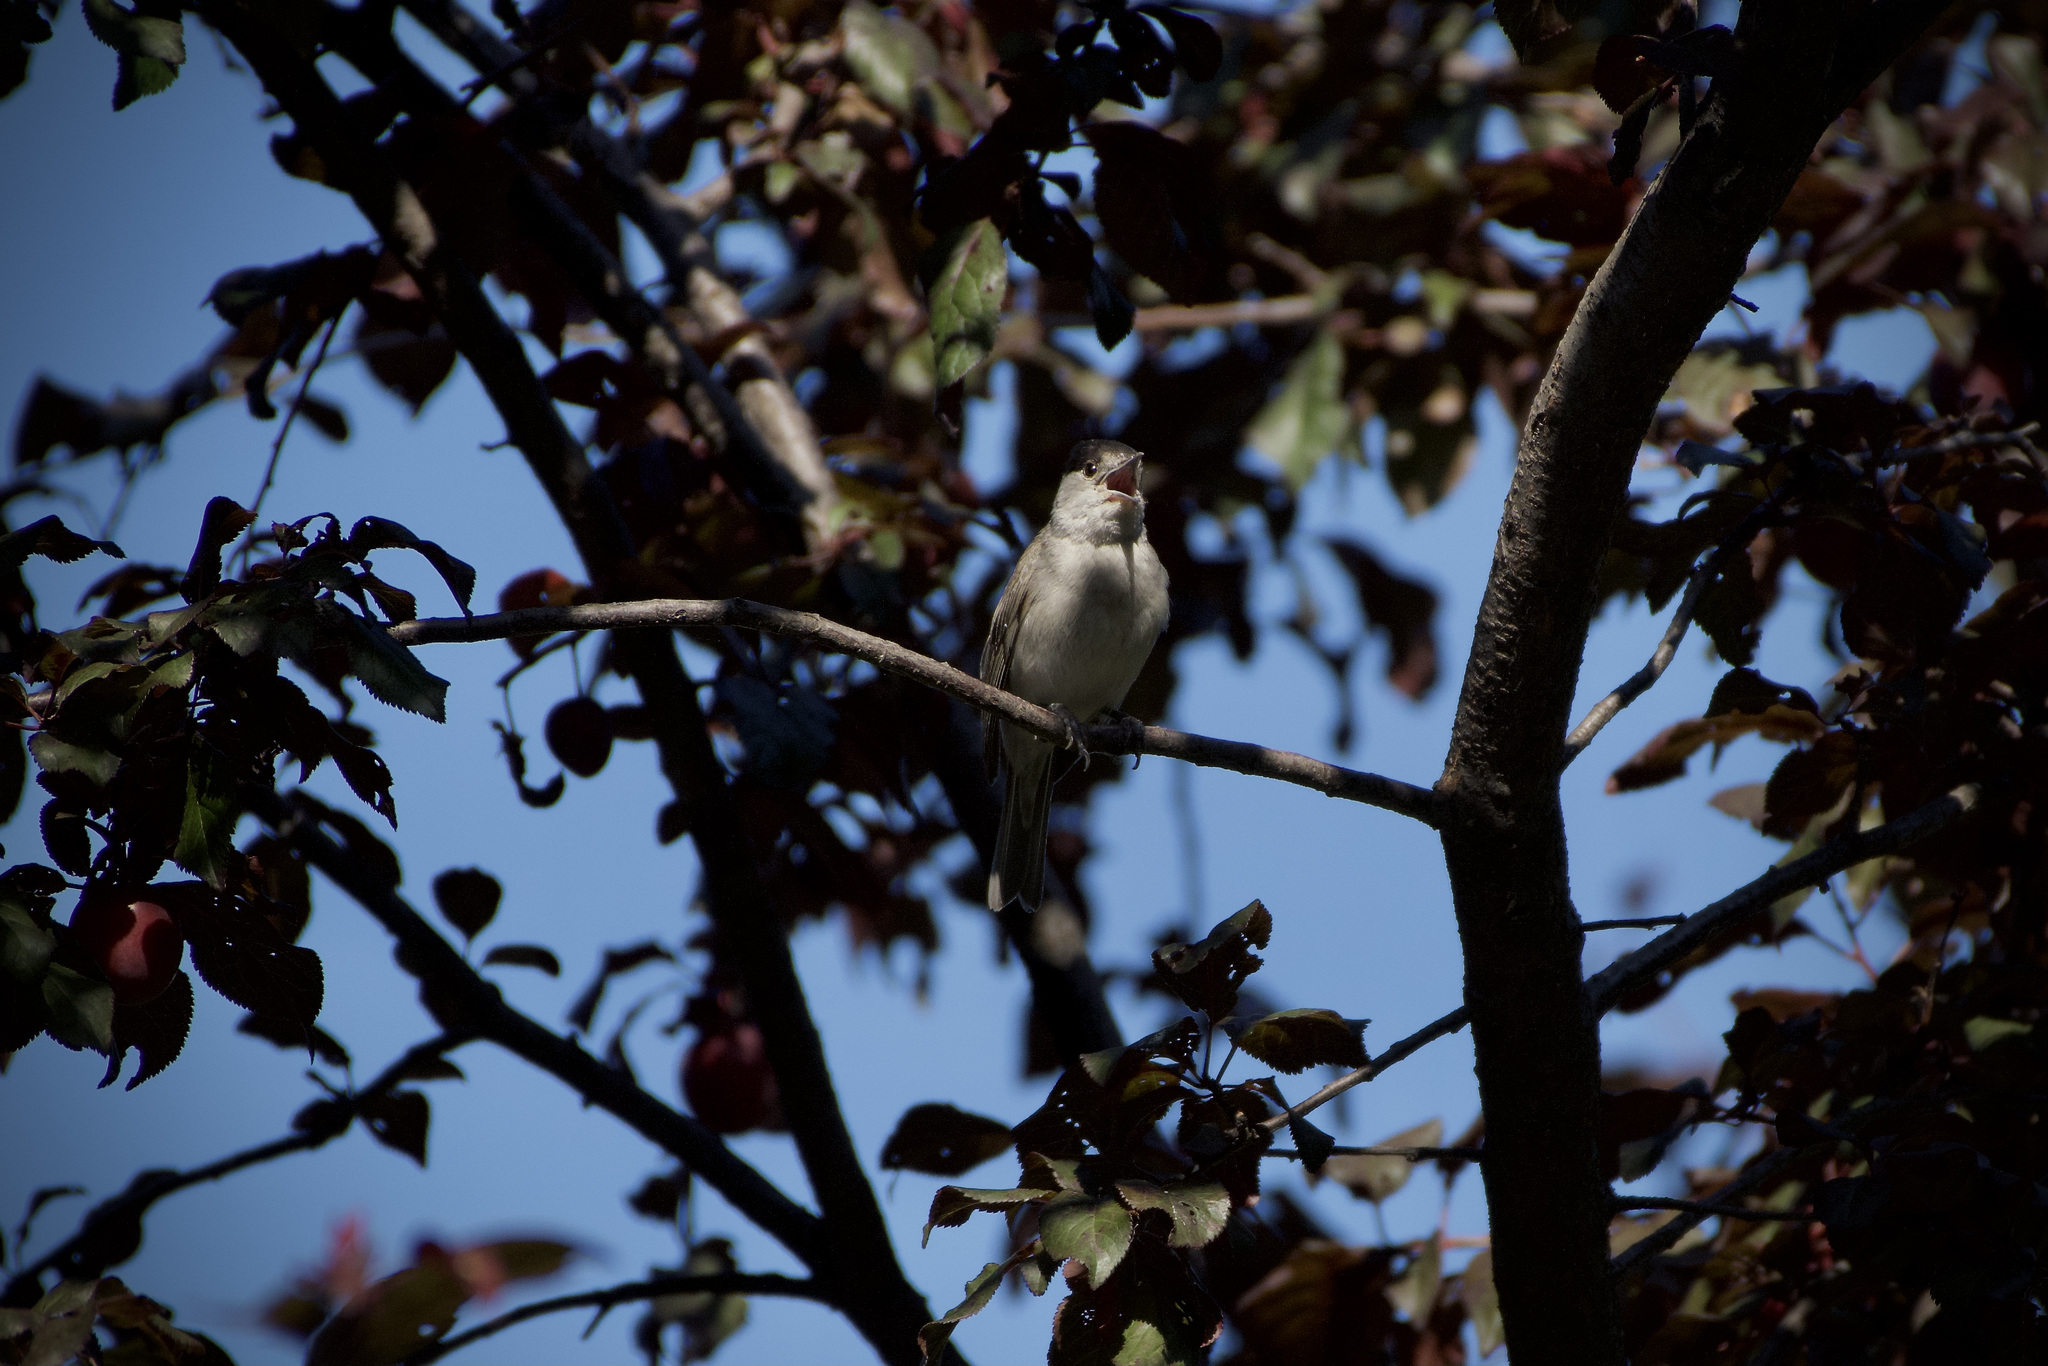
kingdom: Animalia
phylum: Chordata
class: Aves
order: Passeriformes
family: Sylviidae
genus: Sylvia
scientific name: Sylvia atricapilla
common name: Eurasian blackcap
